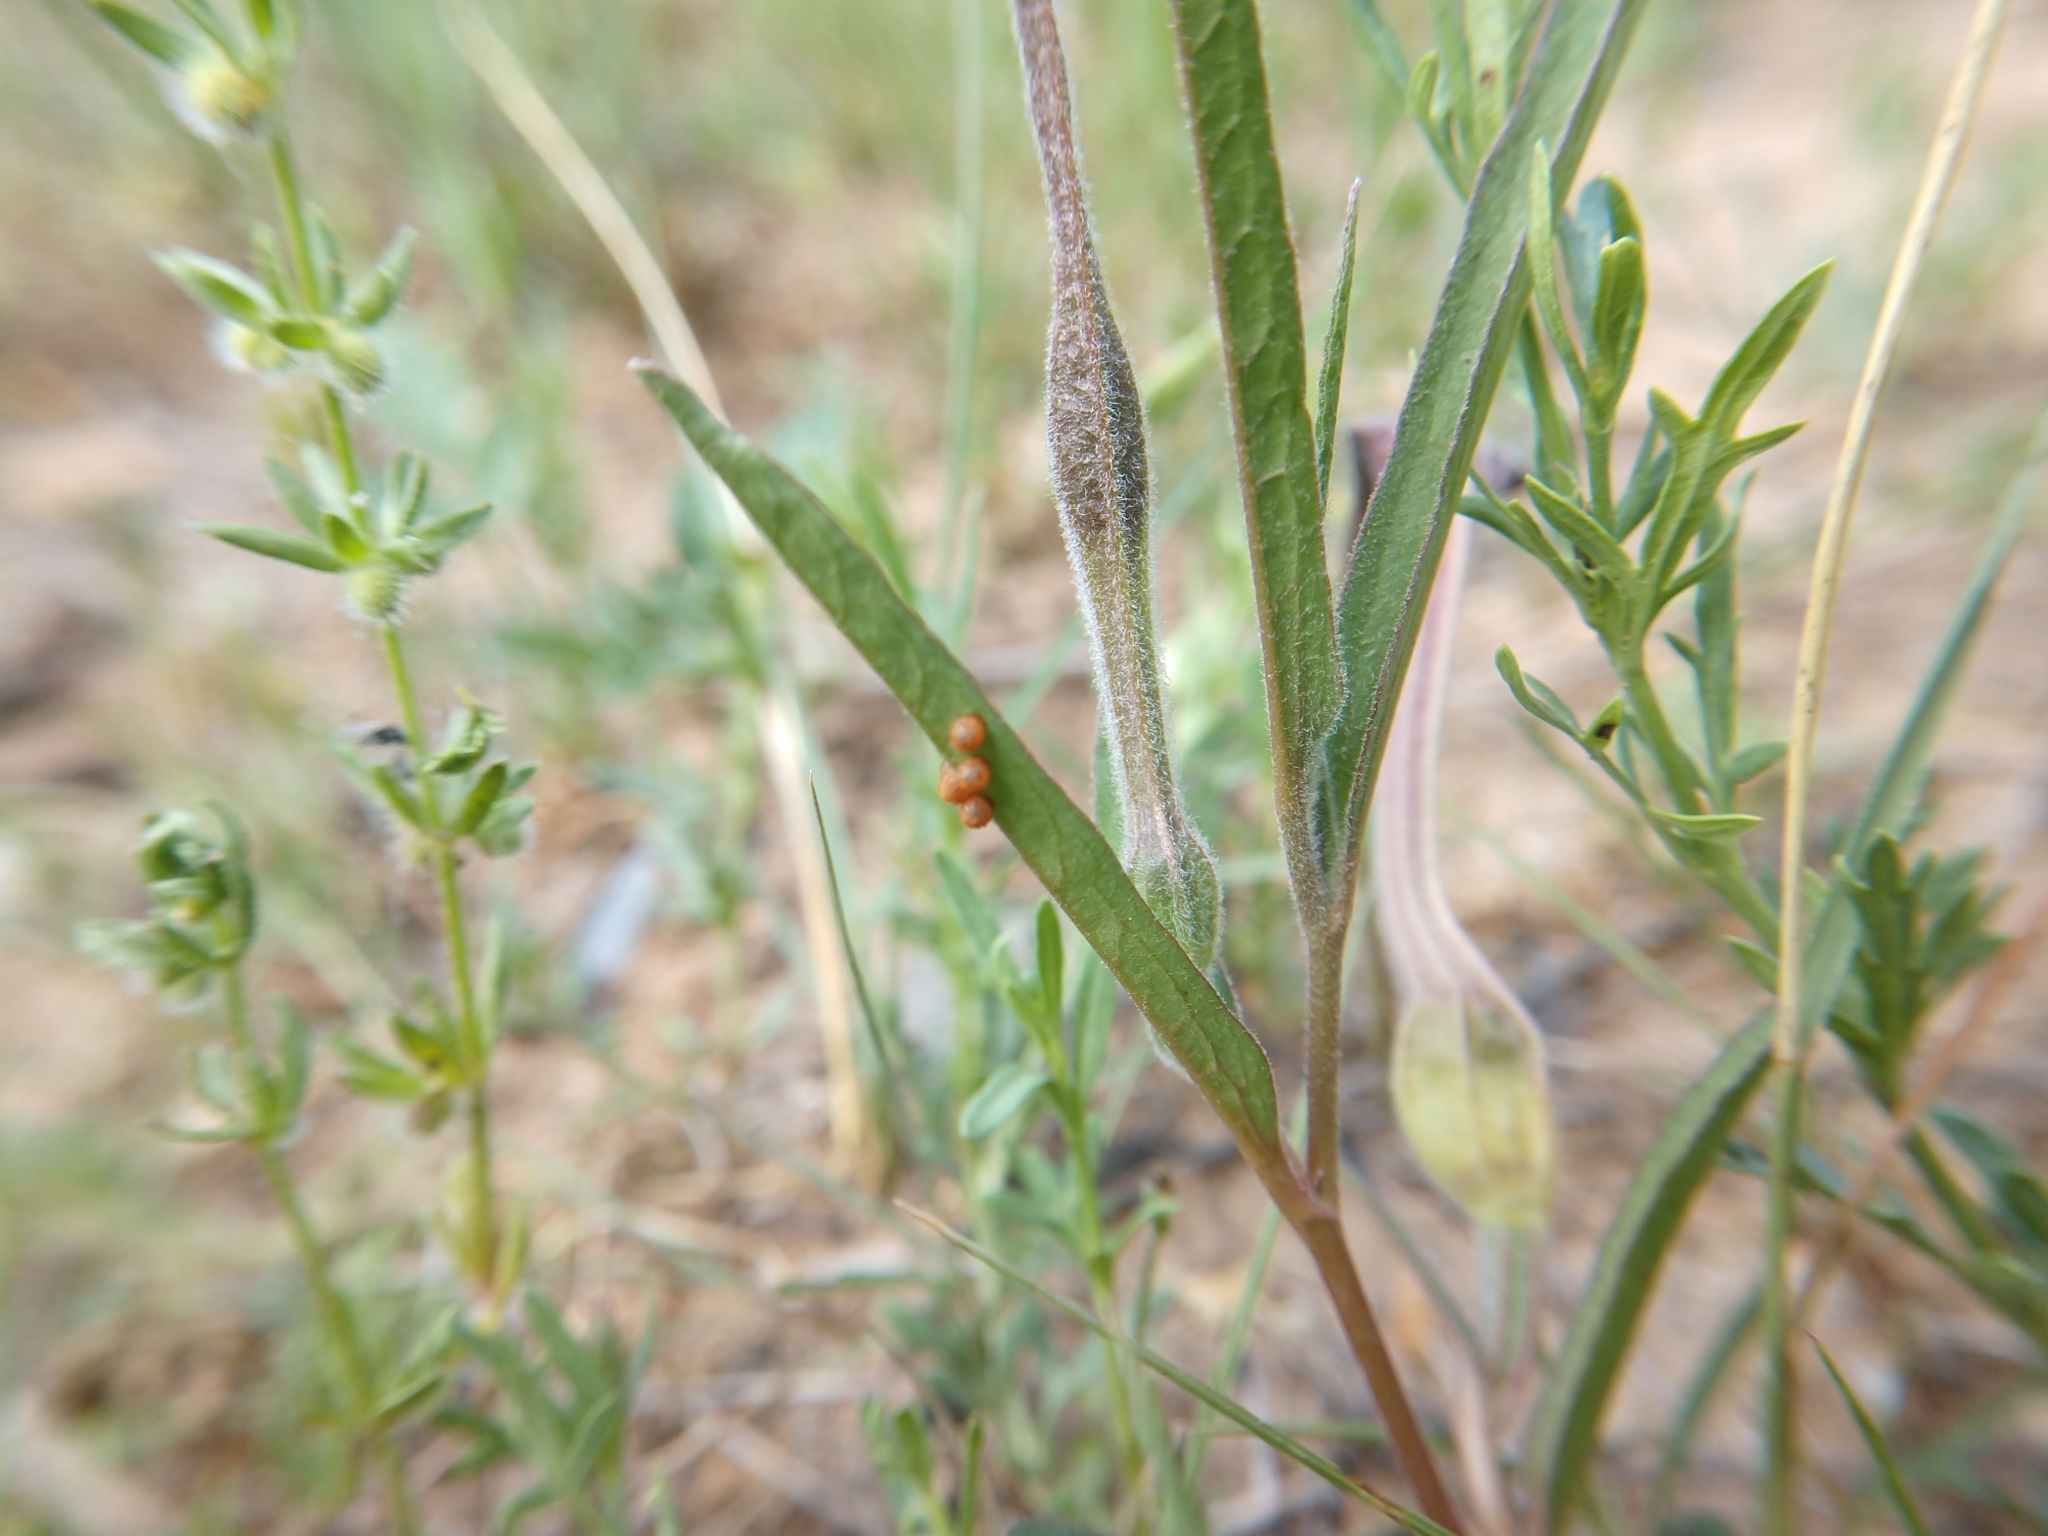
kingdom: Animalia
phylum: Arthropoda
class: Insecta
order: Lepidoptera
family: Papilionidae
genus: Battus
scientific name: Battus philenor
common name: Pipevine swallowtail
